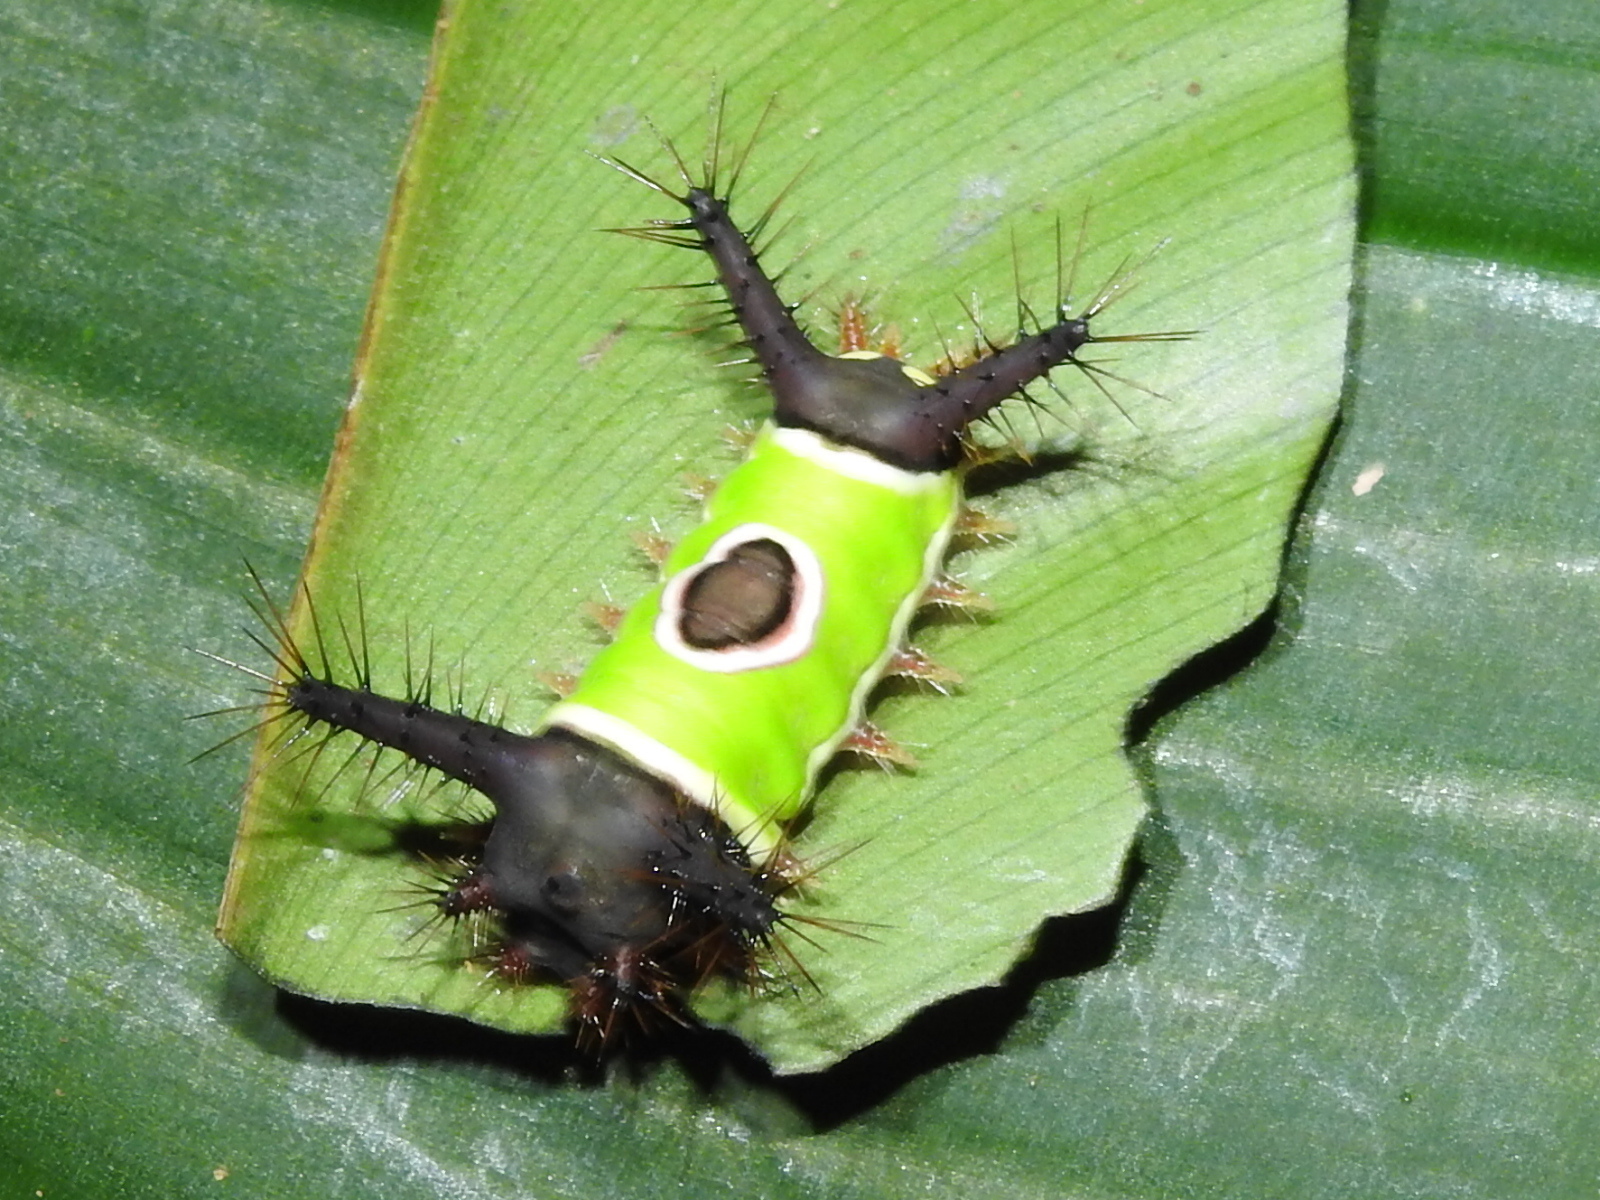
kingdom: Animalia
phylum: Arthropoda
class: Insecta
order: Lepidoptera
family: Limacodidae
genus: Acharia
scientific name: Acharia hyperoche
